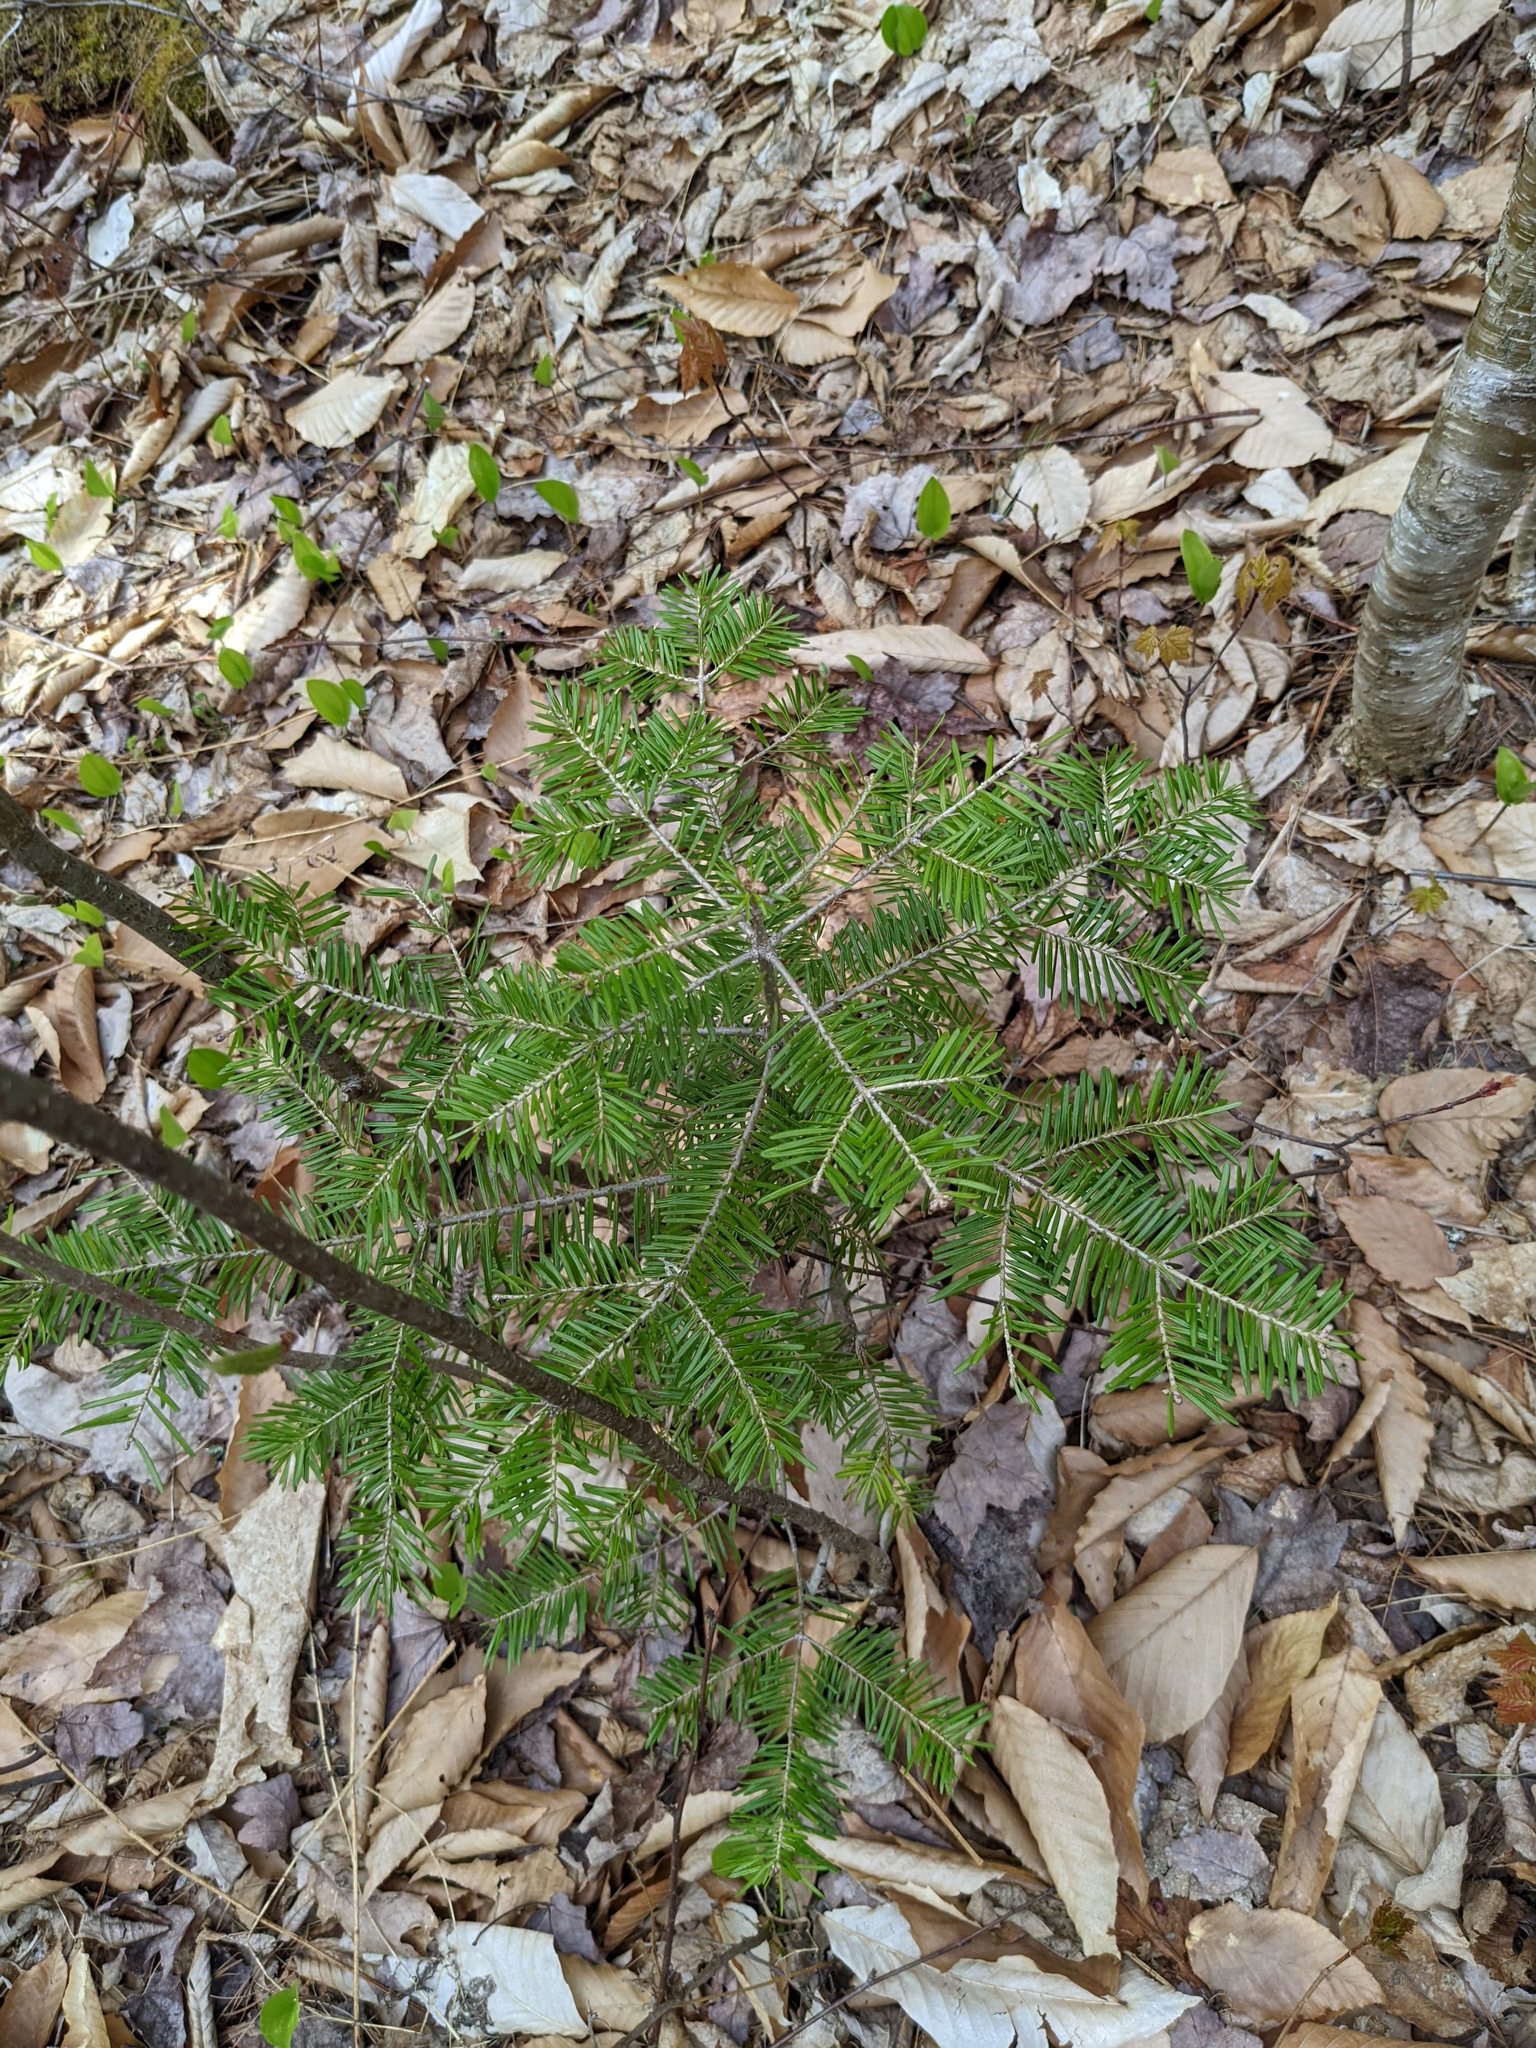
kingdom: Plantae
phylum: Tracheophyta
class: Pinopsida
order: Pinales
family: Pinaceae
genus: Abies
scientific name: Abies balsamea
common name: Balsam fir
